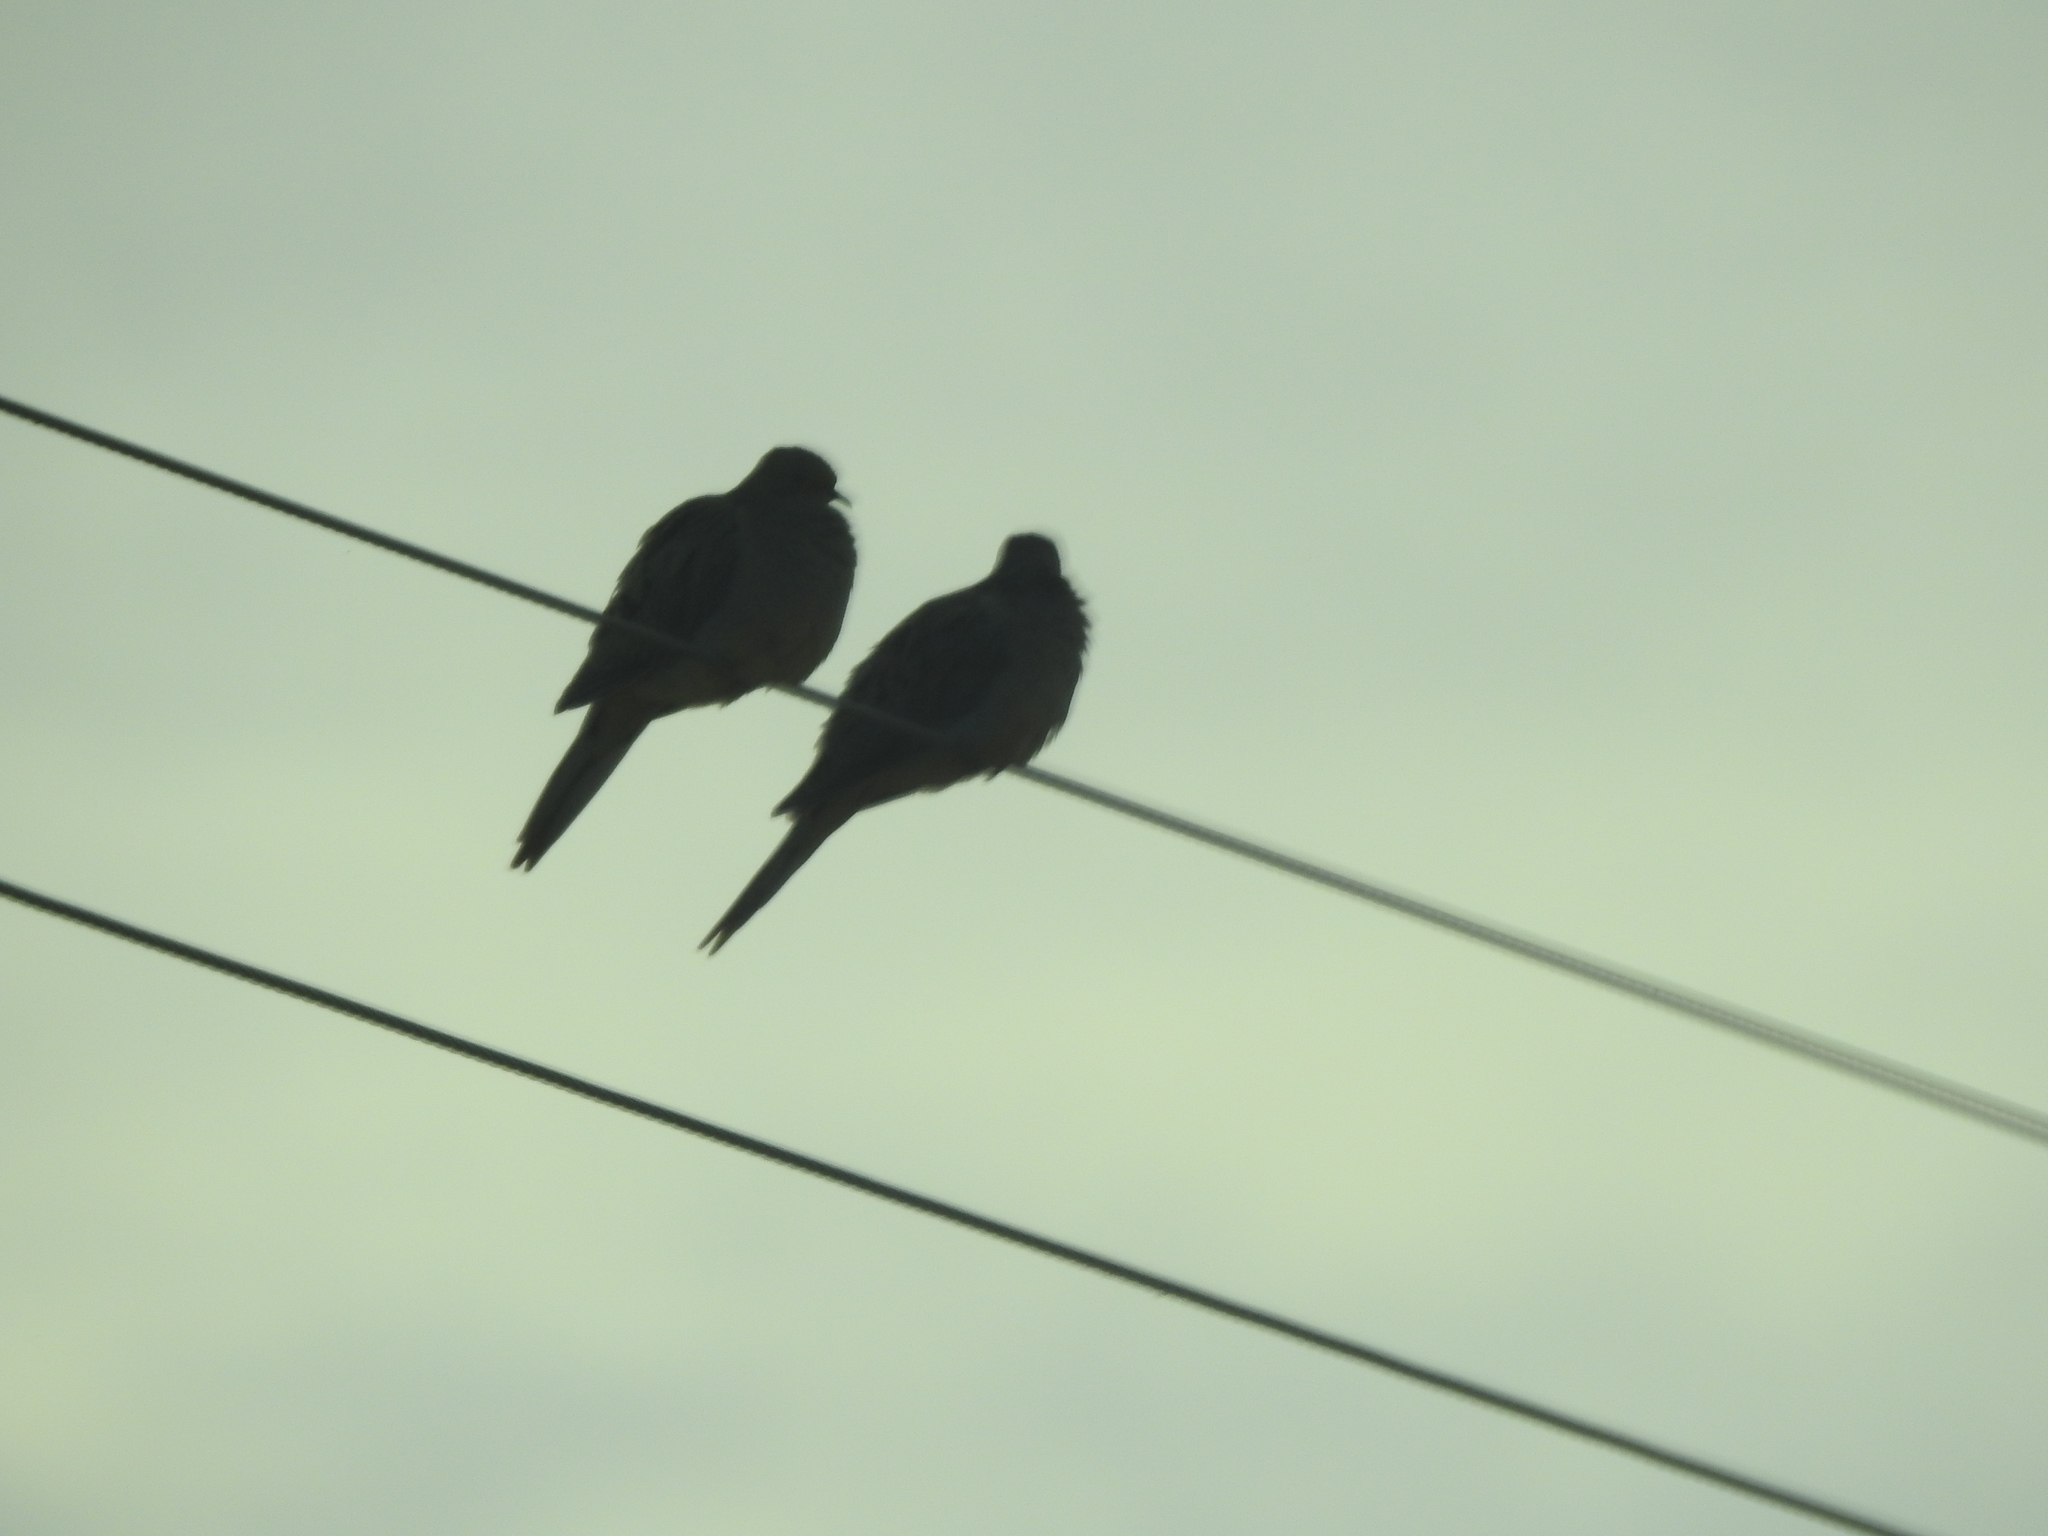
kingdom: Animalia
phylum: Chordata
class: Aves
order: Columbiformes
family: Columbidae
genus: Zenaida
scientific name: Zenaida macroura
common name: Mourning dove
